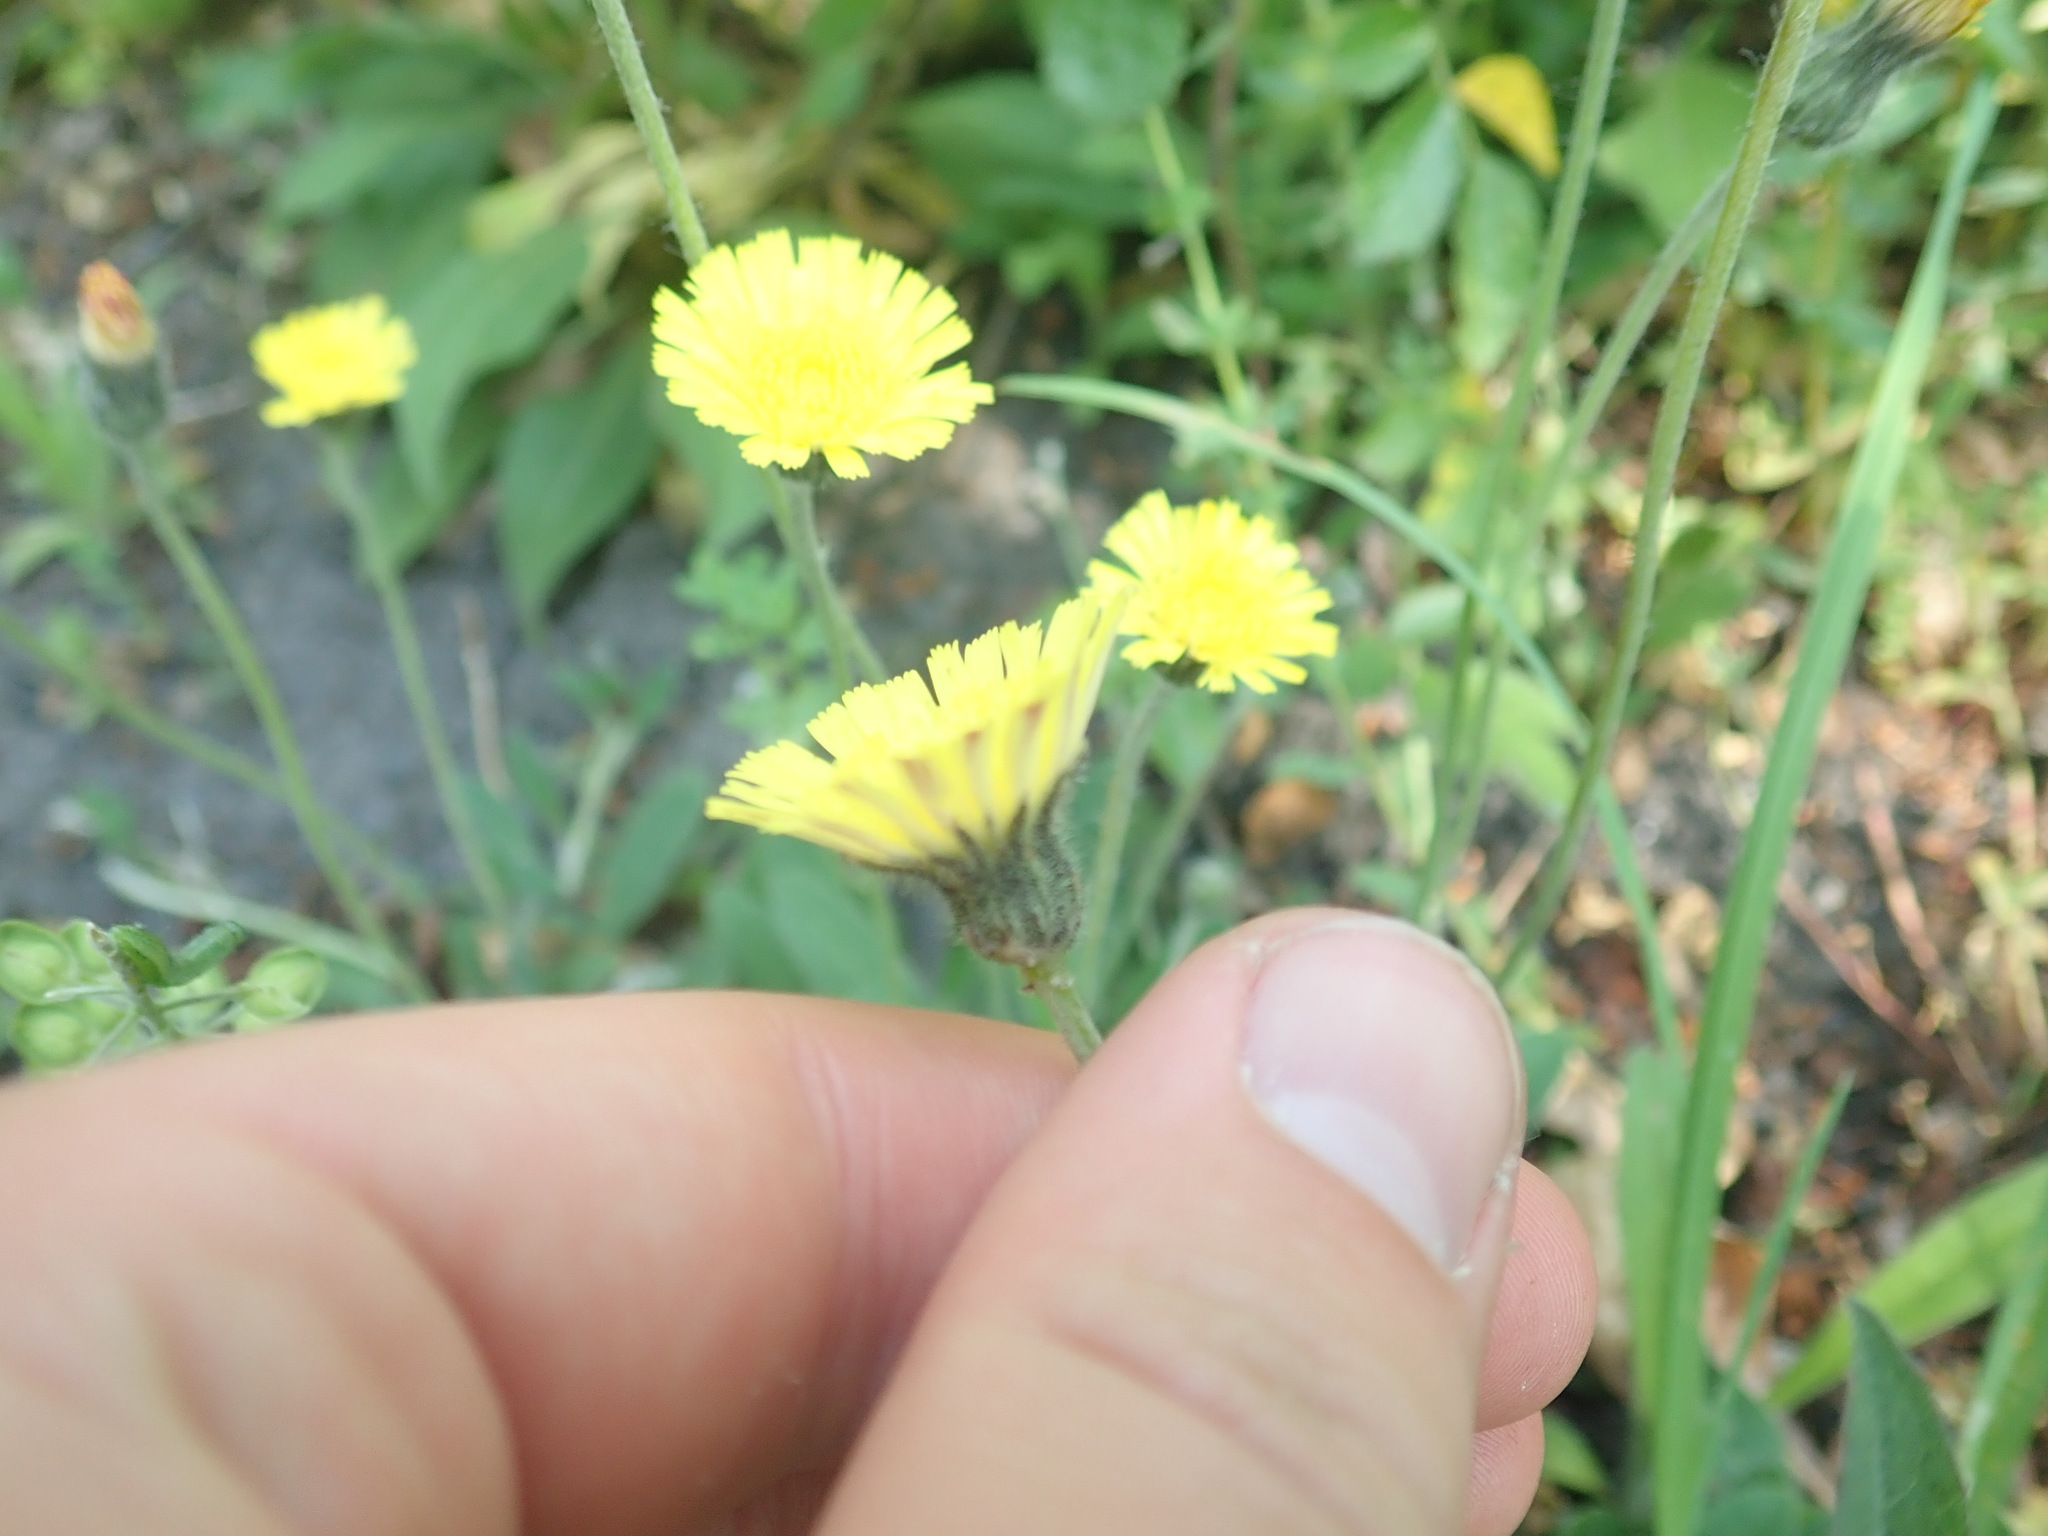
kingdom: Plantae
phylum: Tracheophyta
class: Magnoliopsida
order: Asterales
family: Asteraceae
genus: Pilosella
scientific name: Pilosella officinarum
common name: Mouse-ear hawkweed
